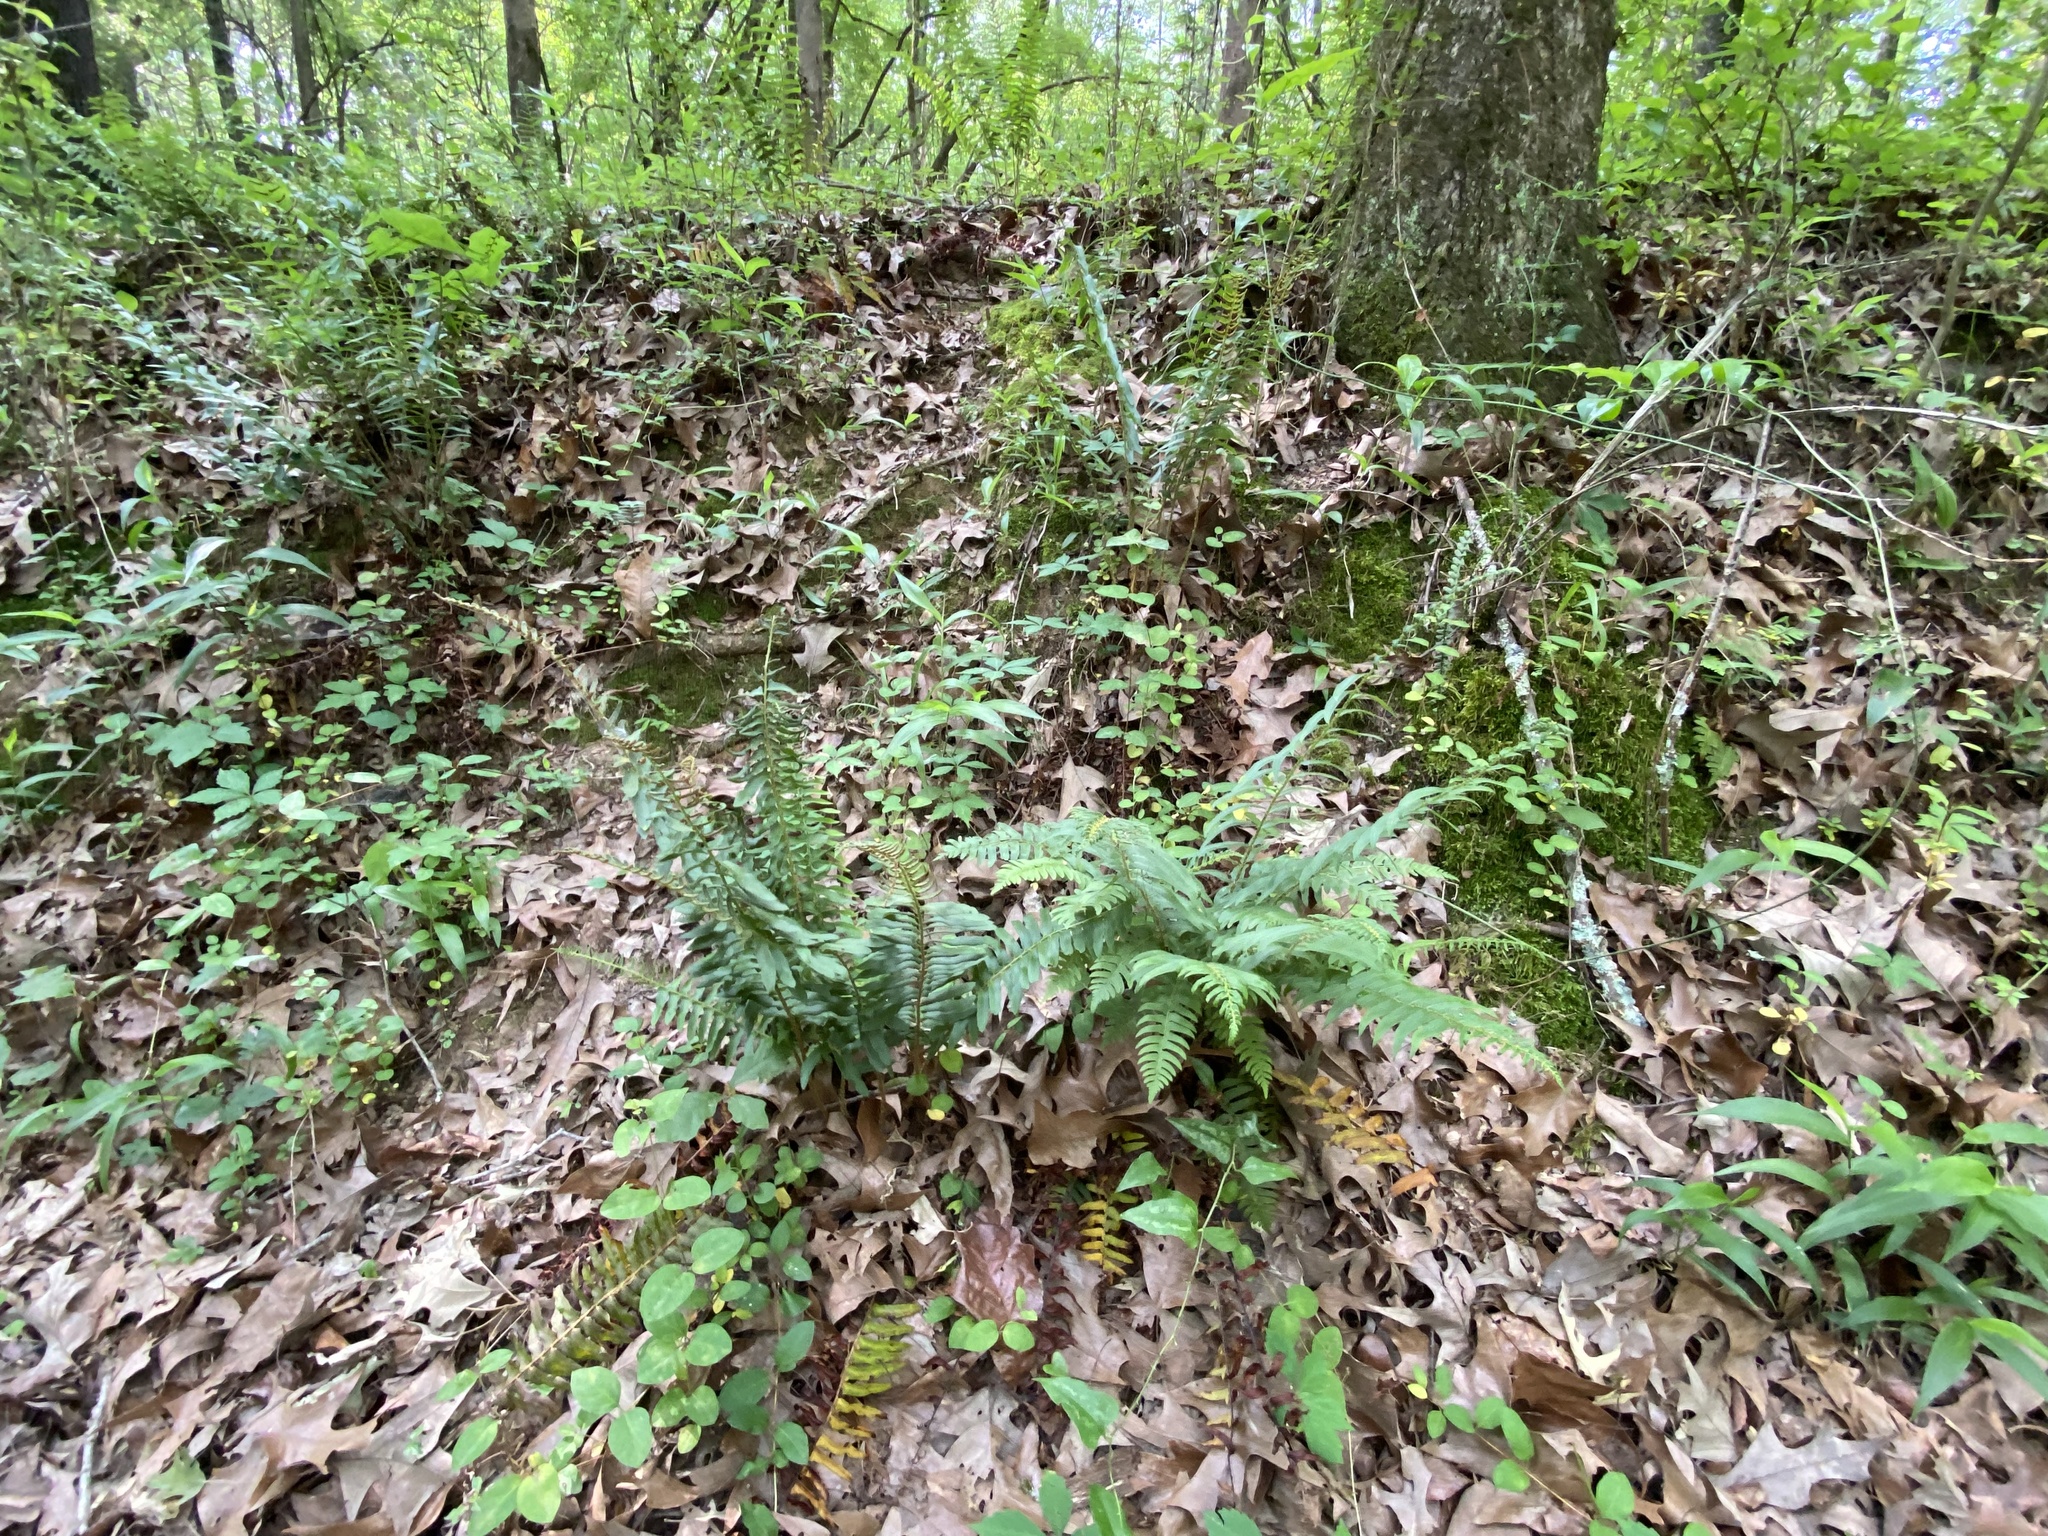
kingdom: Plantae
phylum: Tracheophyta
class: Polypodiopsida
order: Polypodiales
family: Dryopteridaceae
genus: Polystichum
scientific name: Polystichum acrostichoides
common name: Christmas fern
